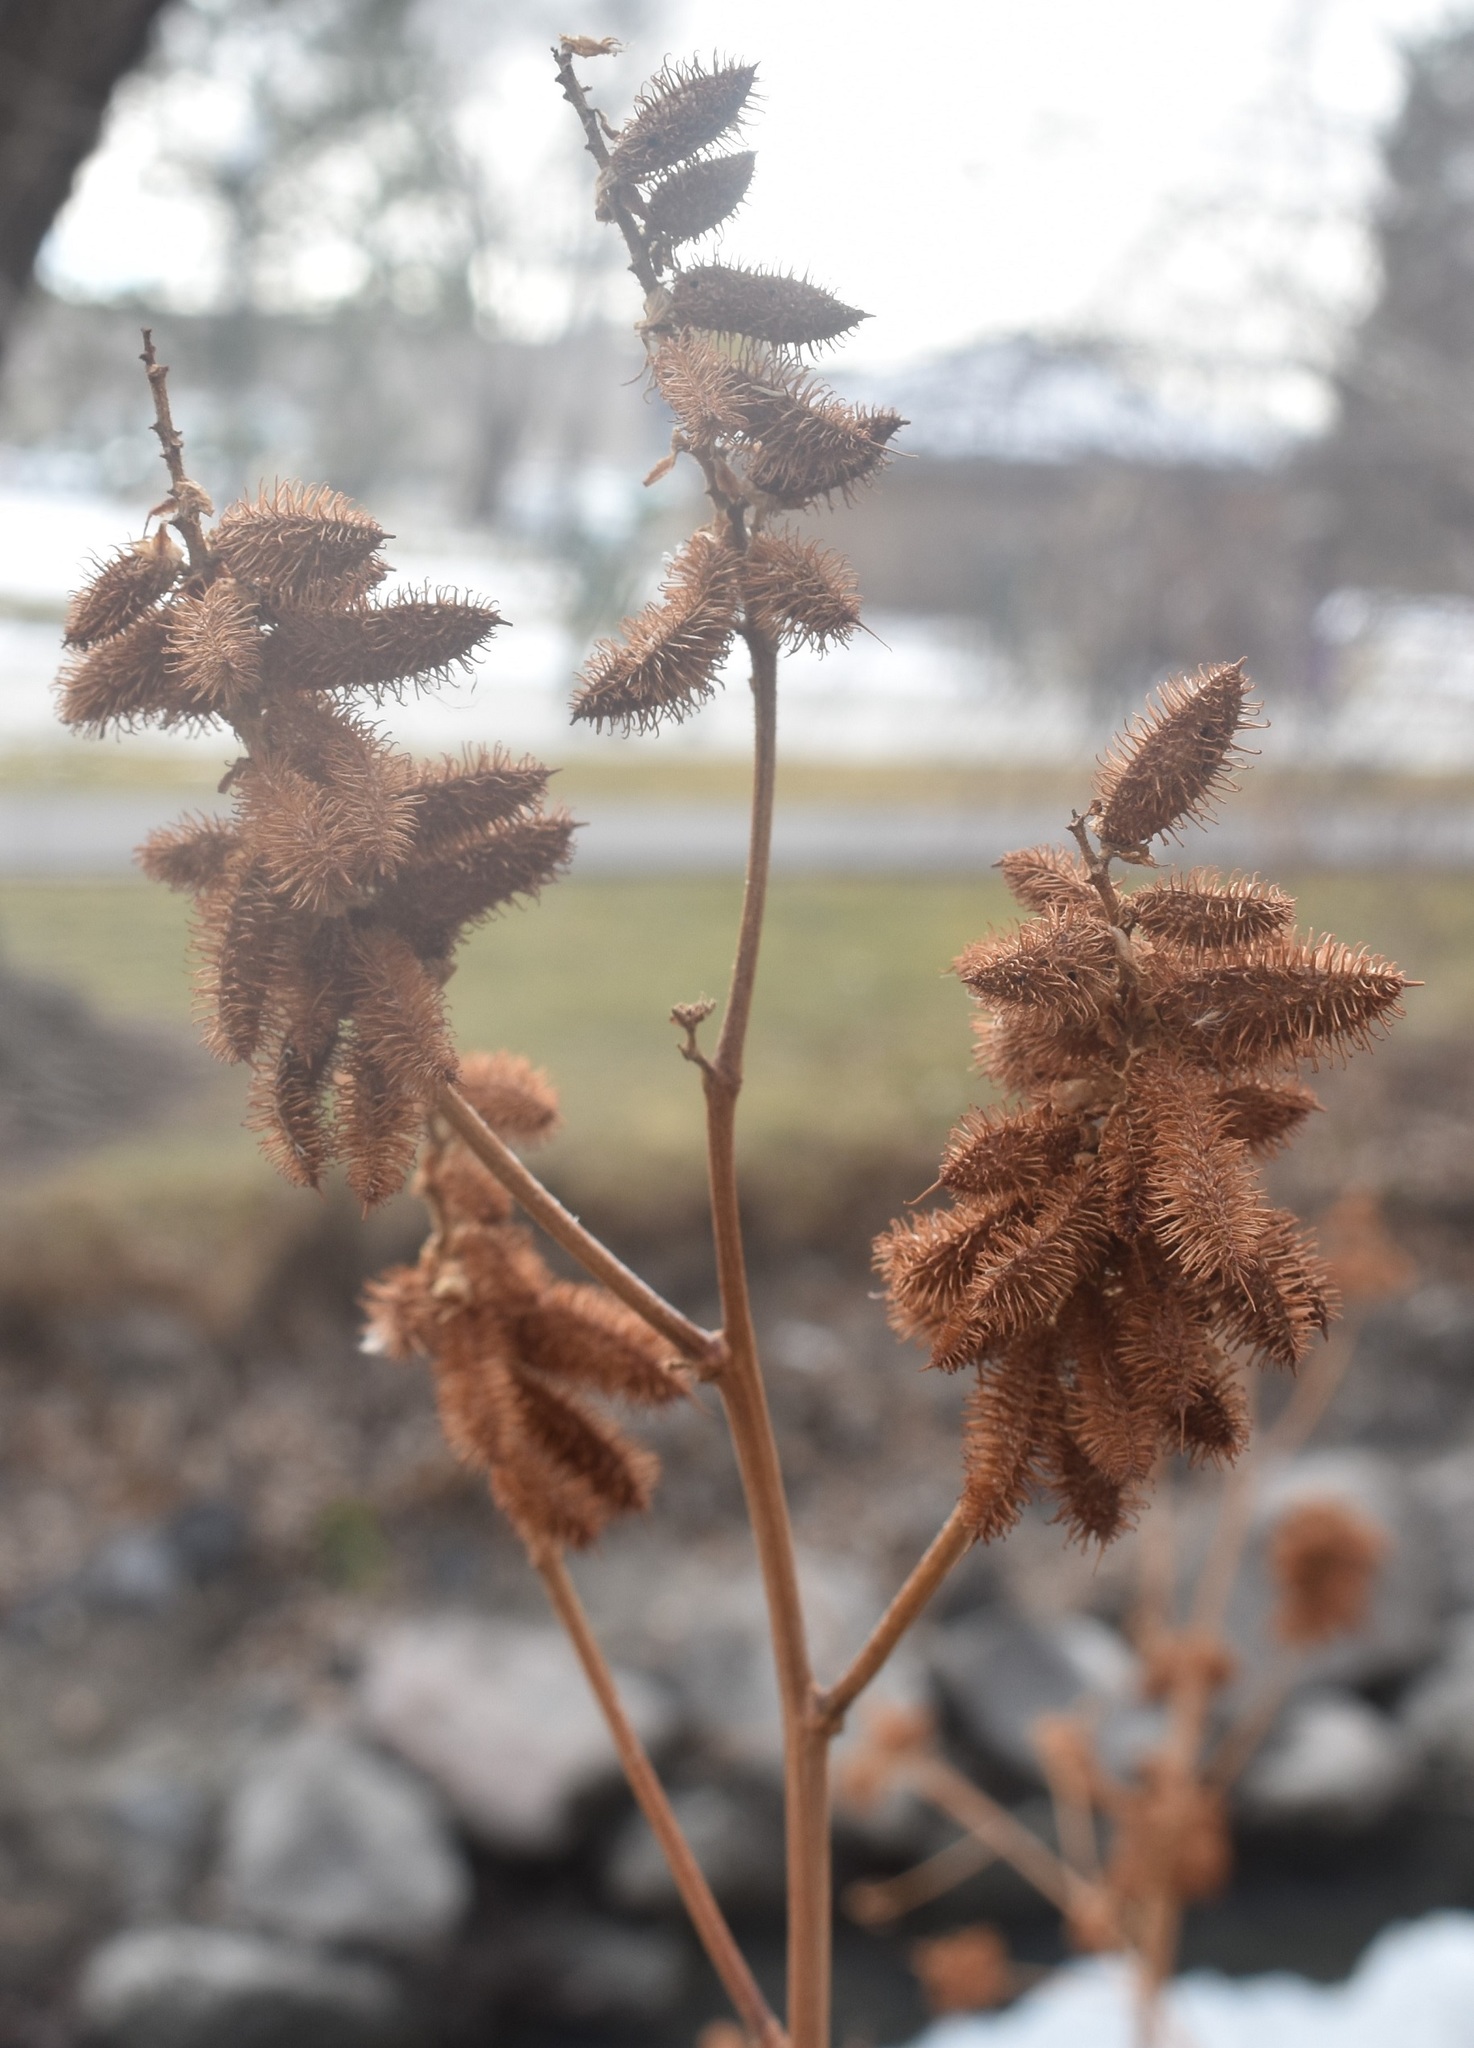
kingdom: Plantae
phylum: Tracheophyta
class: Magnoliopsida
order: Fabales
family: Fabaceae
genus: Glycyrrhiza
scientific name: Glycyrrhiza lepidota
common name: American liquorice
